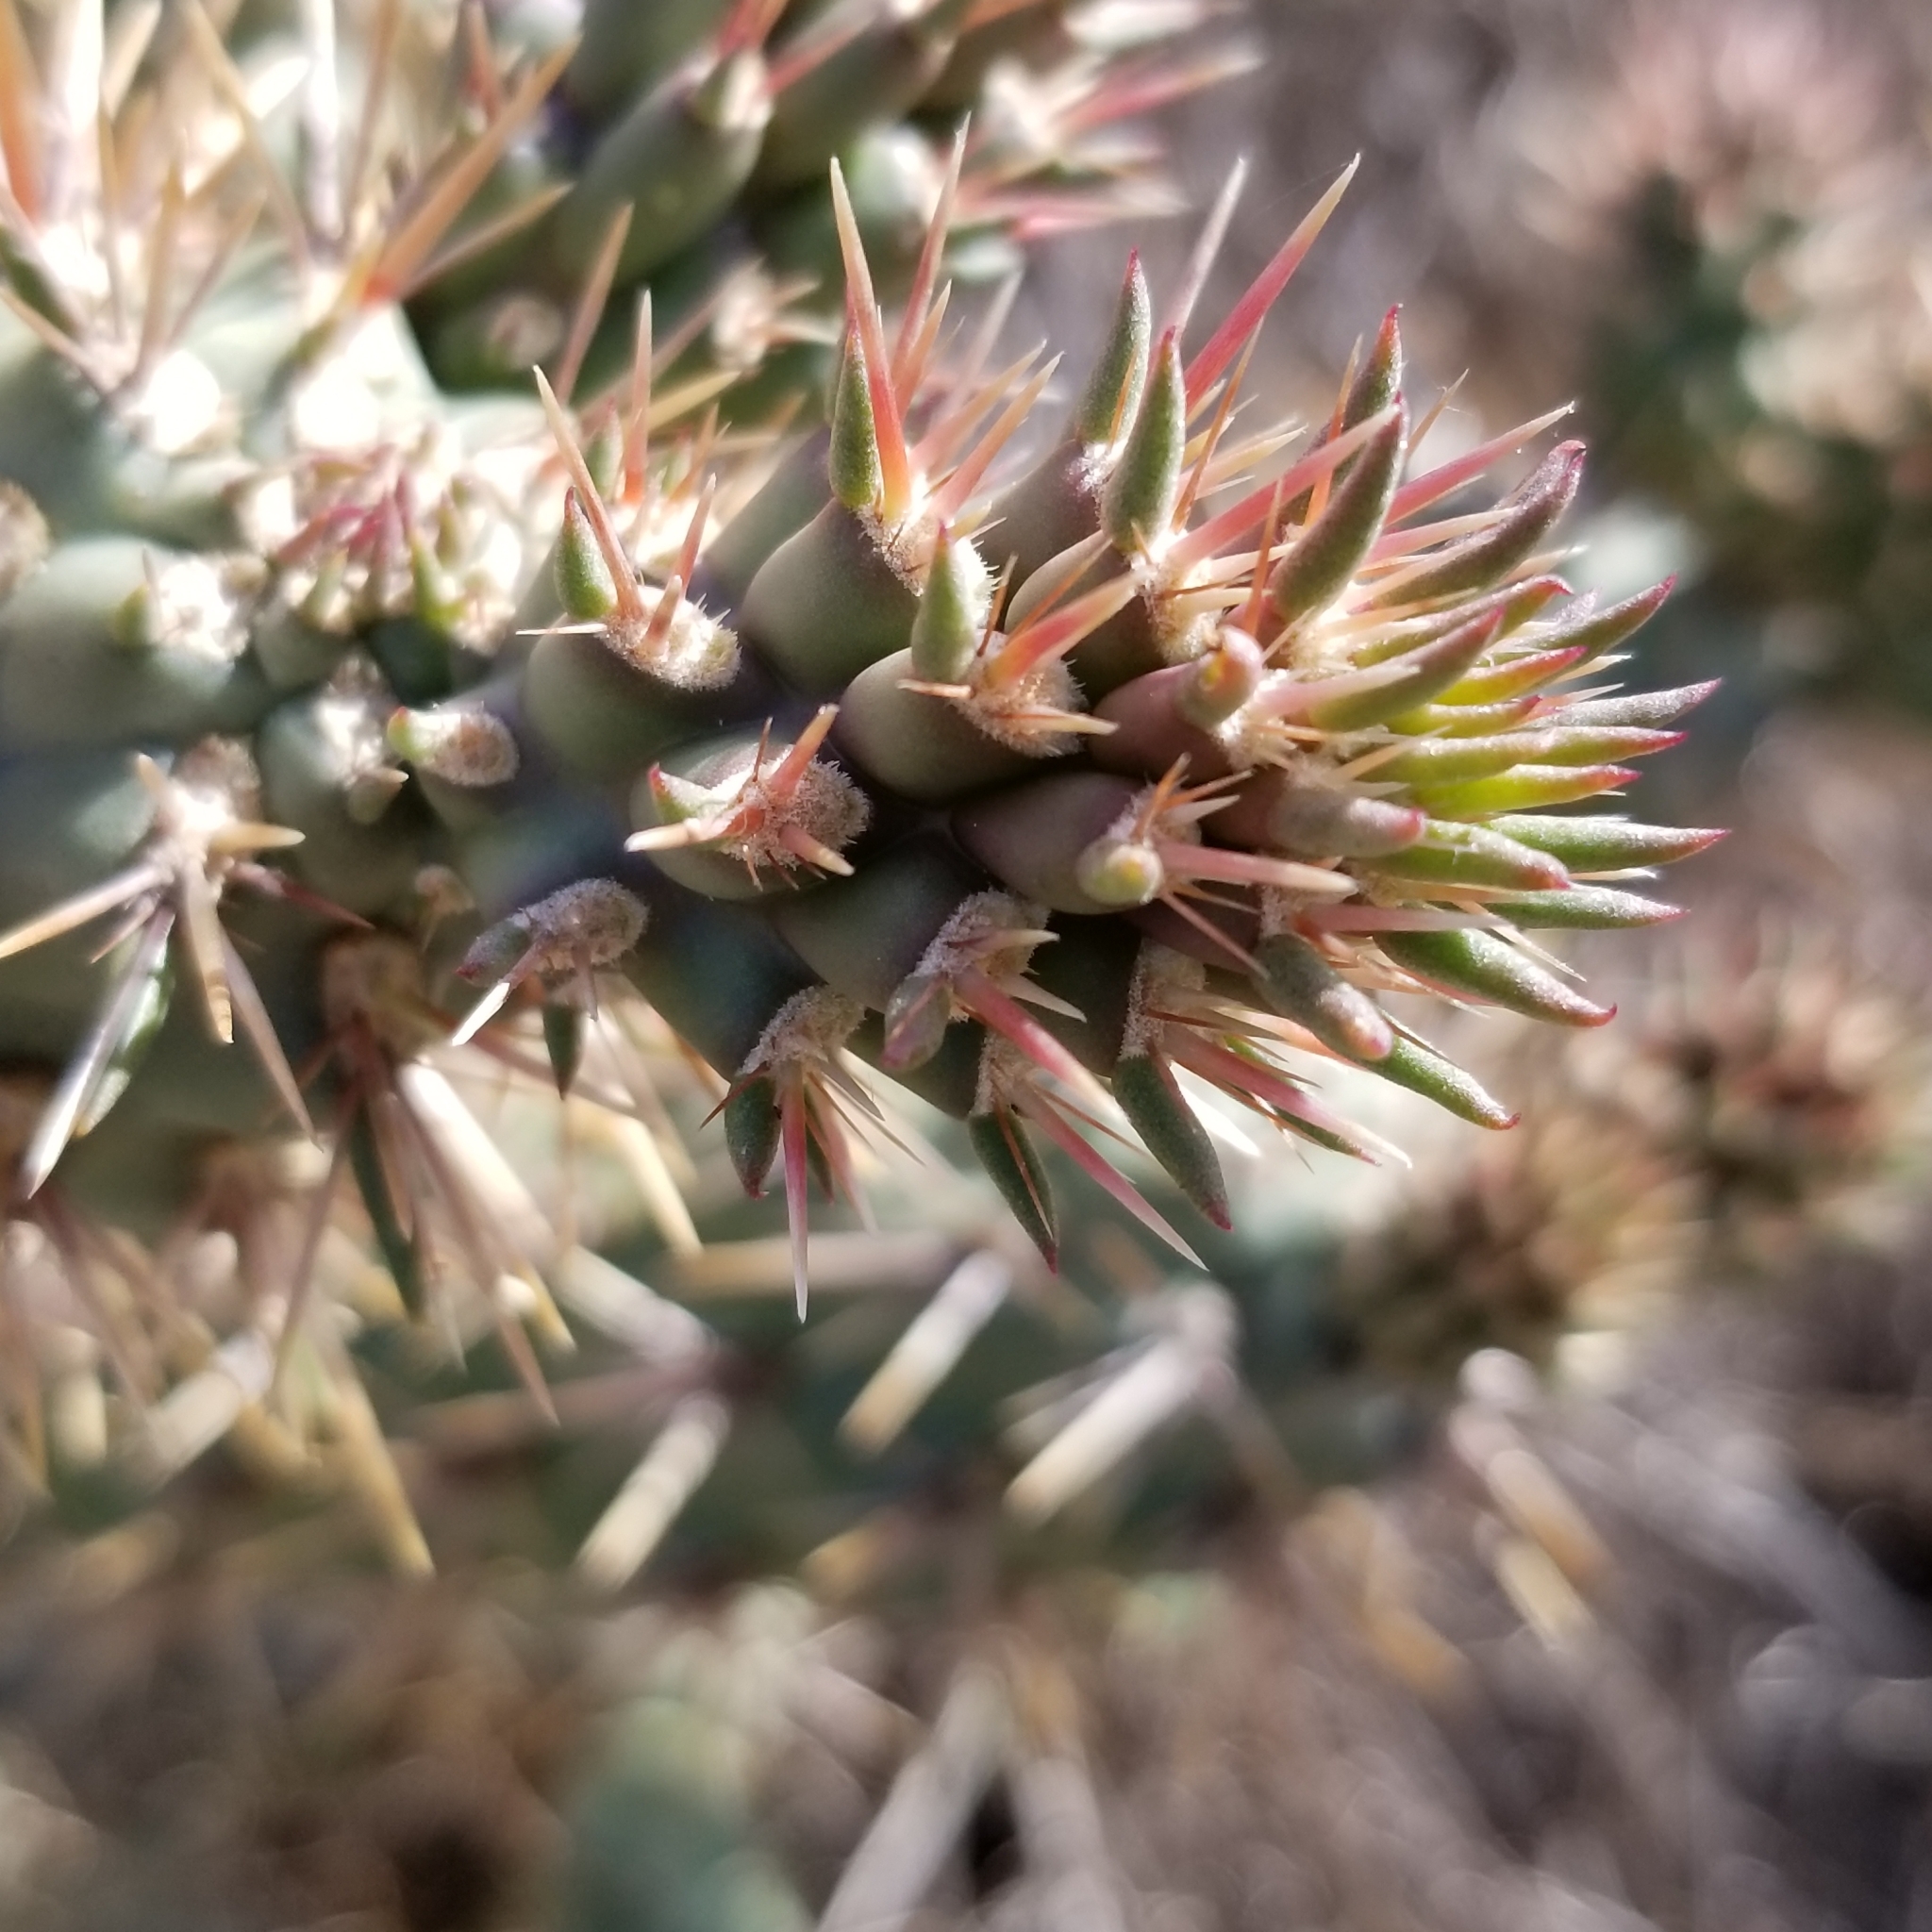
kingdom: Plantae
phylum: Tracheophyta
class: Magnoliopsida
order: Caryophyllales
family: Cactaceae
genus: Cylindropuntia
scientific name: Cylindropuntia prolifera
